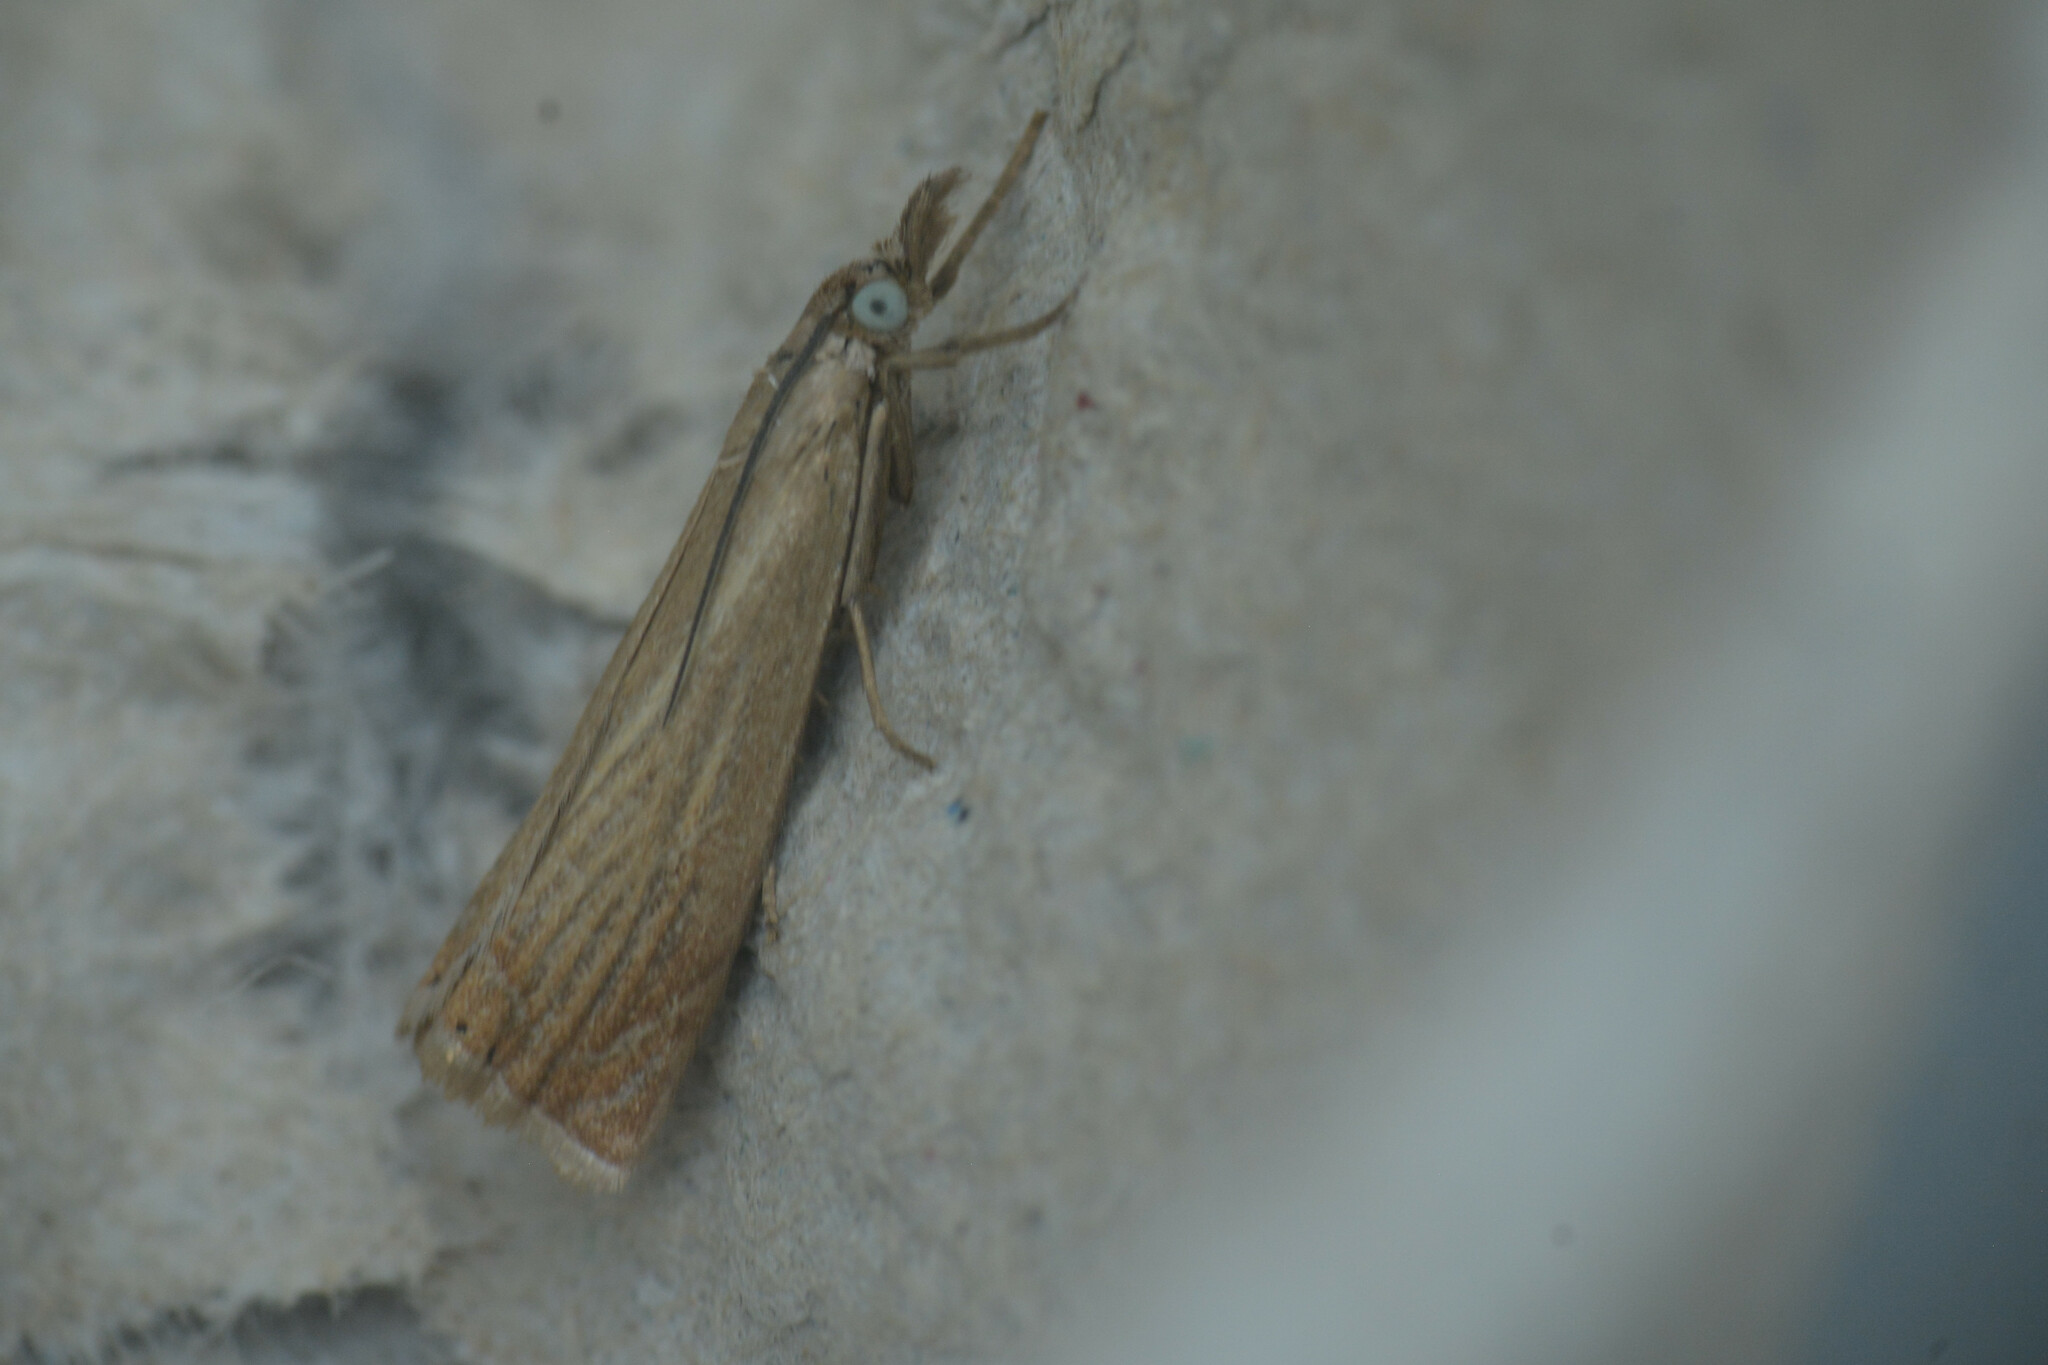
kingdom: Animalia
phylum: Arthropoda
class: Insecta
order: Lepidoptera
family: Crambidae
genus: Chrysoteuchia
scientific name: Chrysoteuchia culmella
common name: Garden grass-veneer
